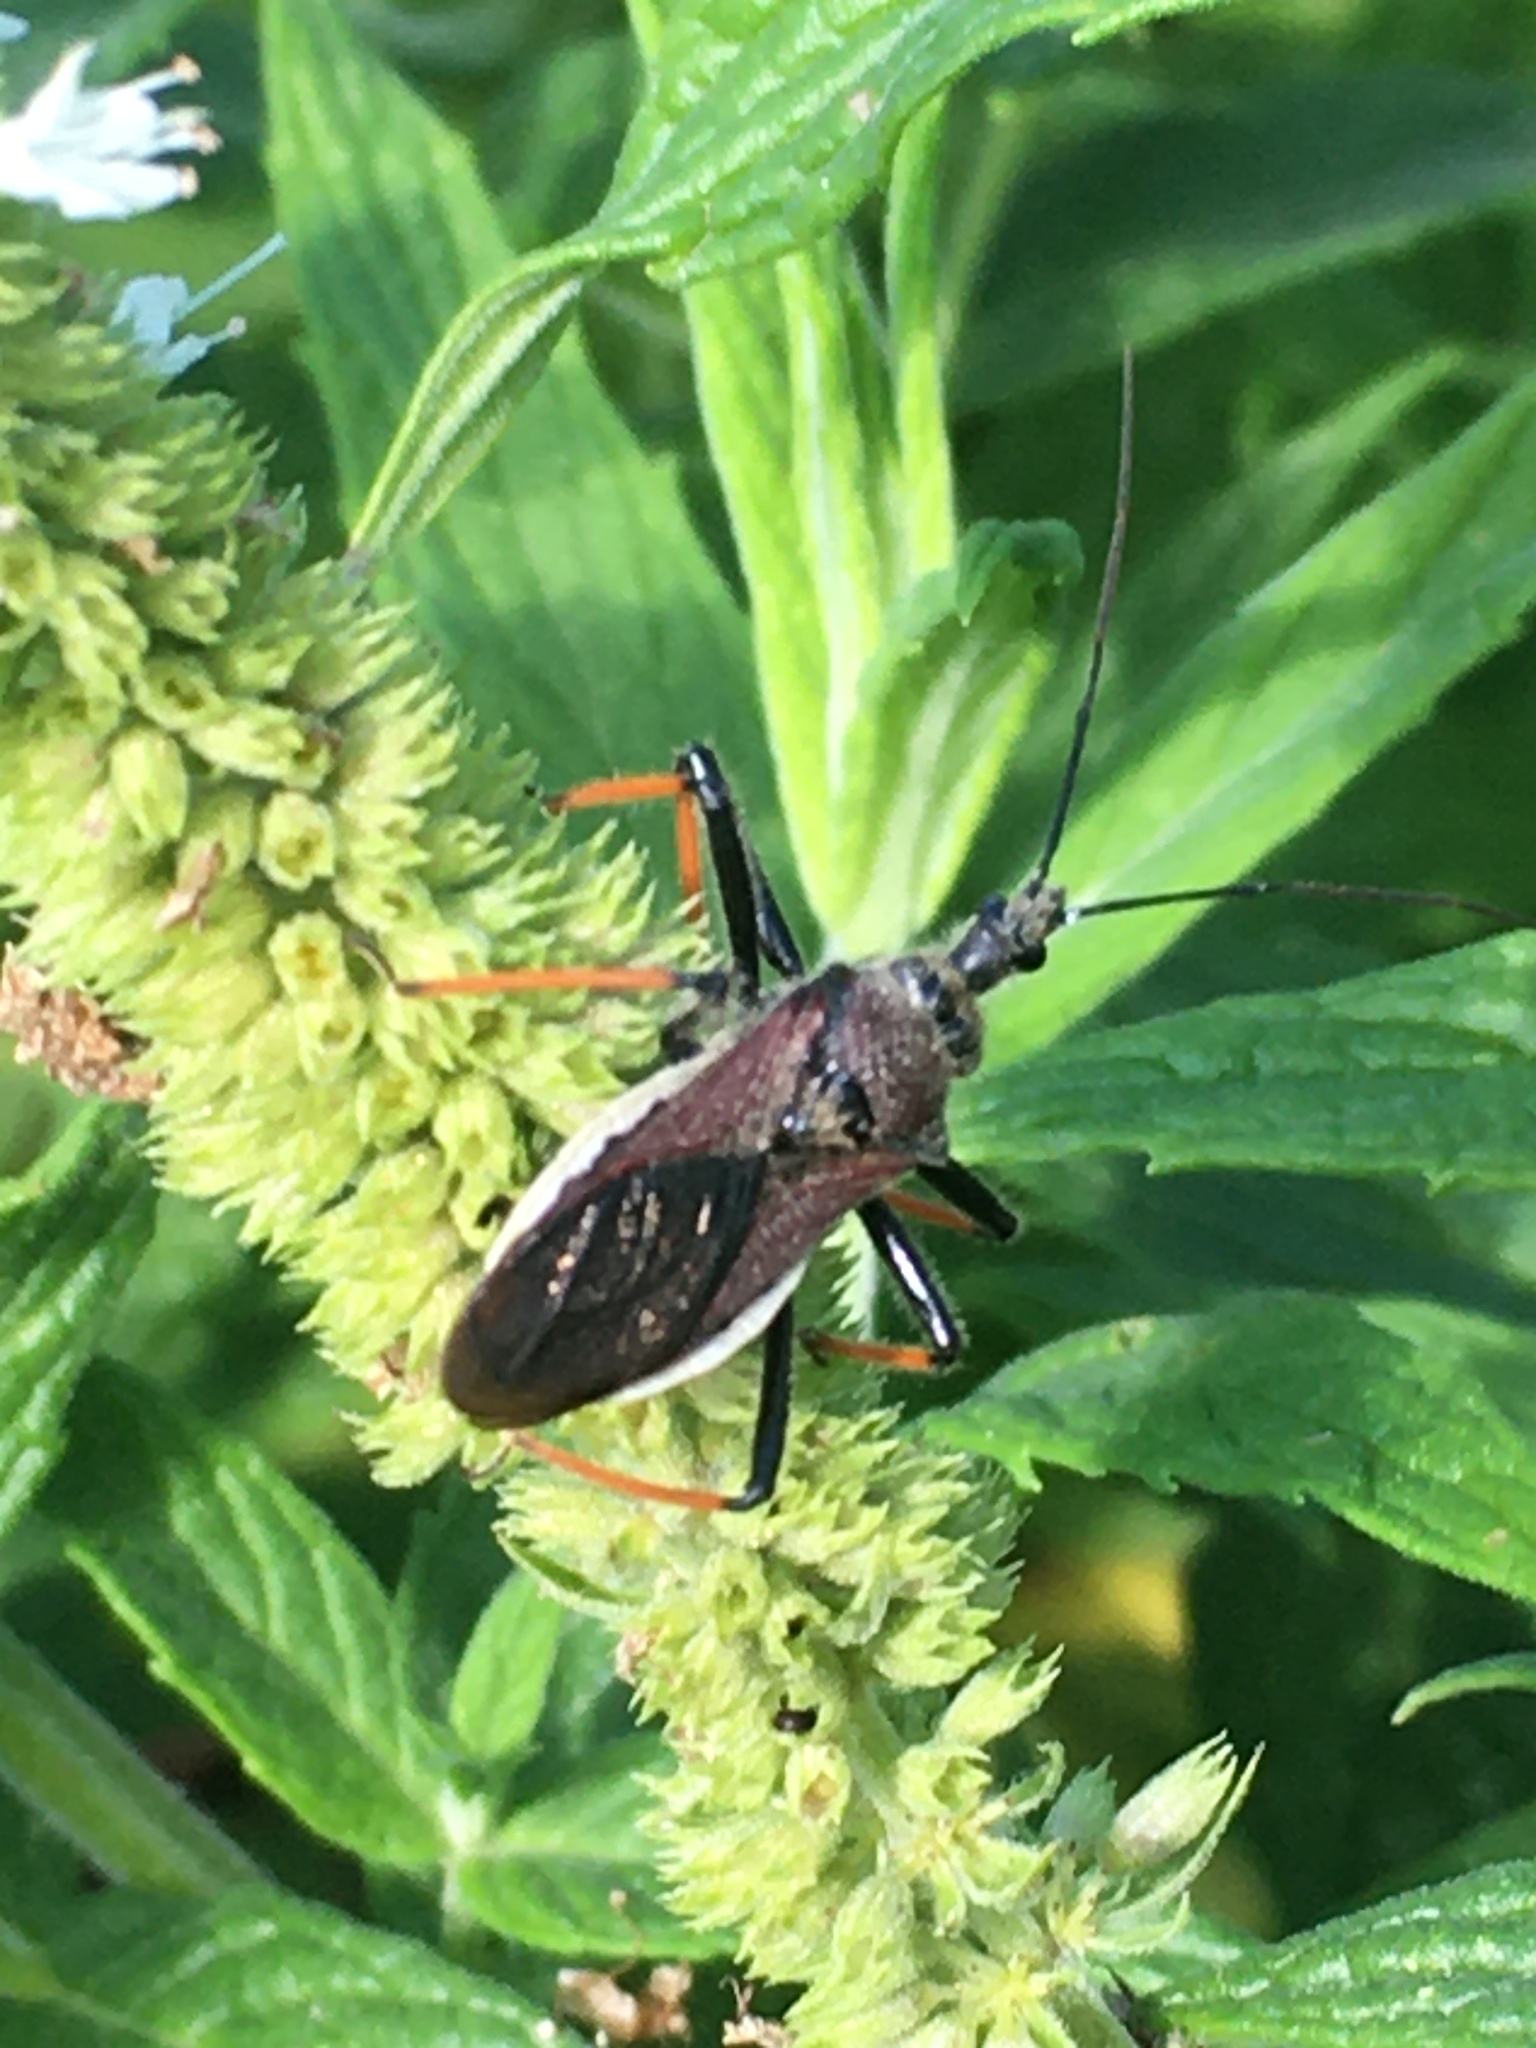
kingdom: Animalia
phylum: Arthropoda
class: Insecta
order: Hemiptera
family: Reduviidae
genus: Rhynocoris
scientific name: Rhynocoris erythrocnemis
